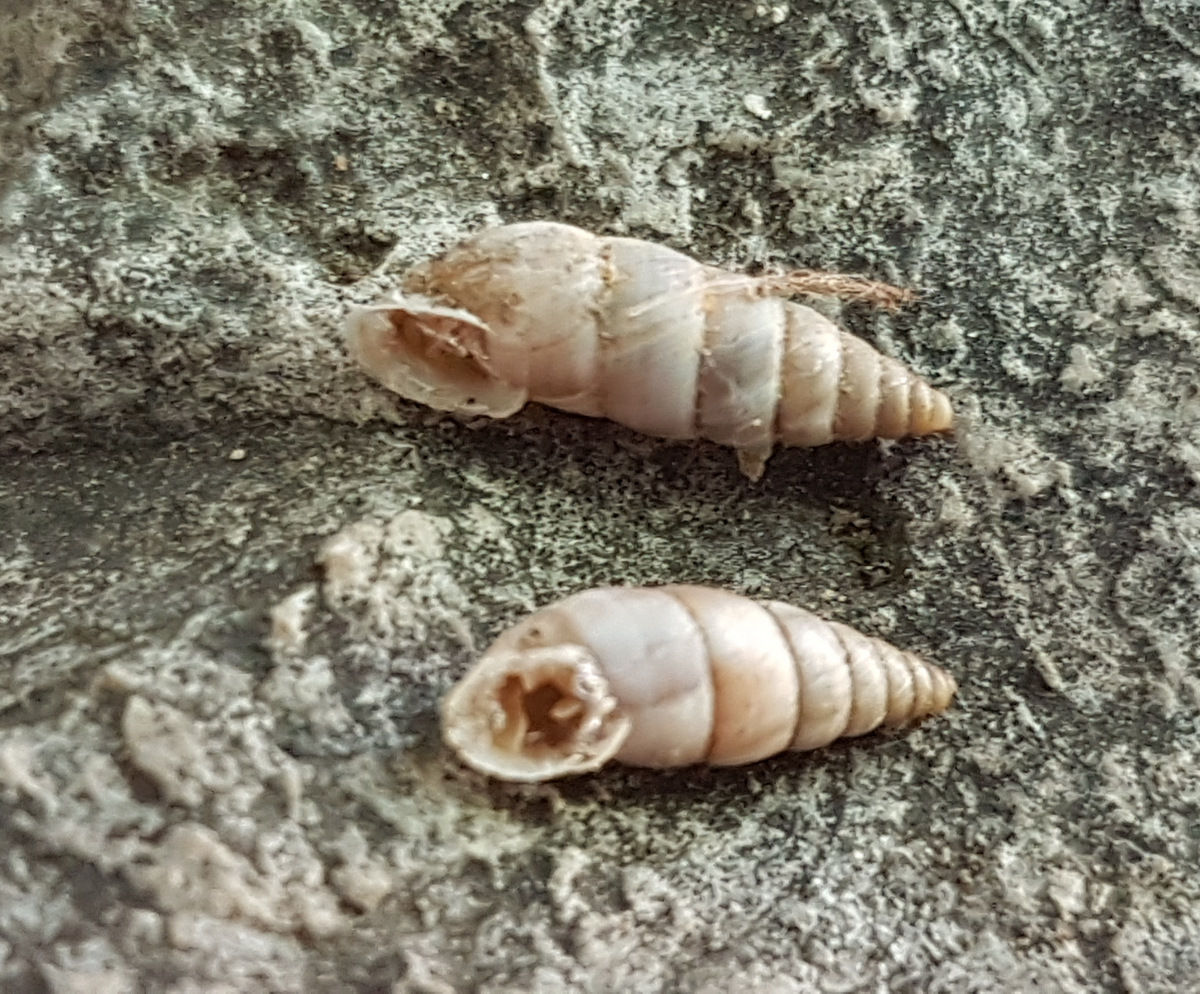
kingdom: Animalia
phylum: Mollusca
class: Gastropoda
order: Stylommatophora
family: Chondrinidae
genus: Solatopupa
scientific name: Solatopupa similis
